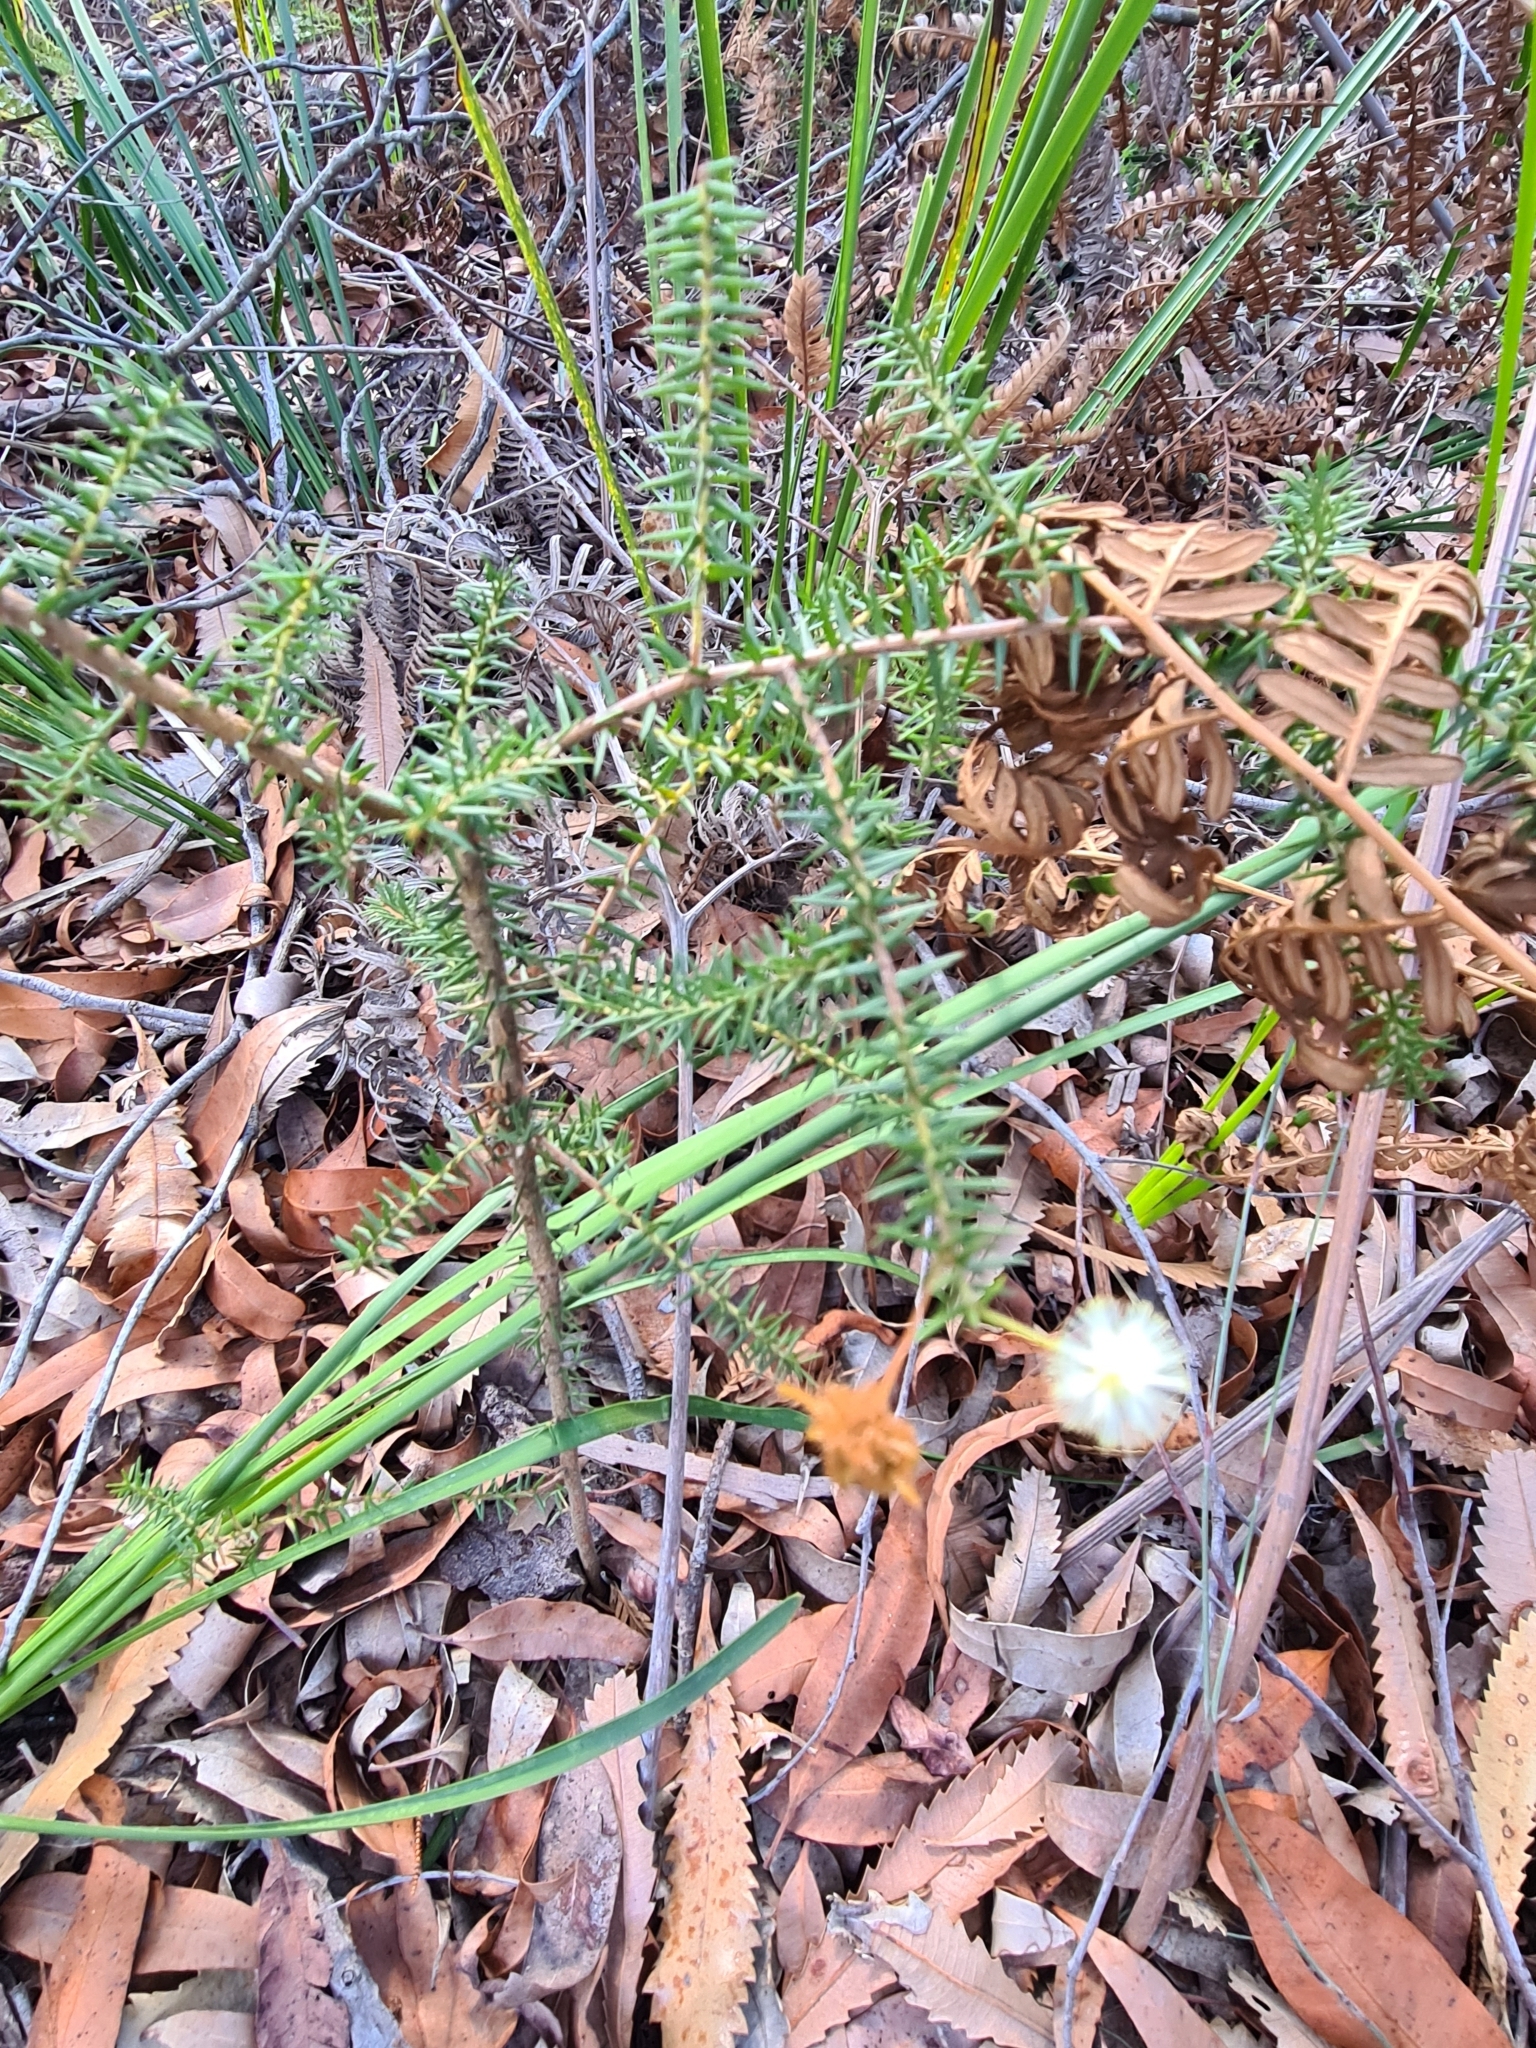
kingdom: Plantae
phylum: Tracheophyta
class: Magnoliopsida
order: Fabales
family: Fabaceae
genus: Acacia
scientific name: Acacia ulicifolia
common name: Juniper wattle
